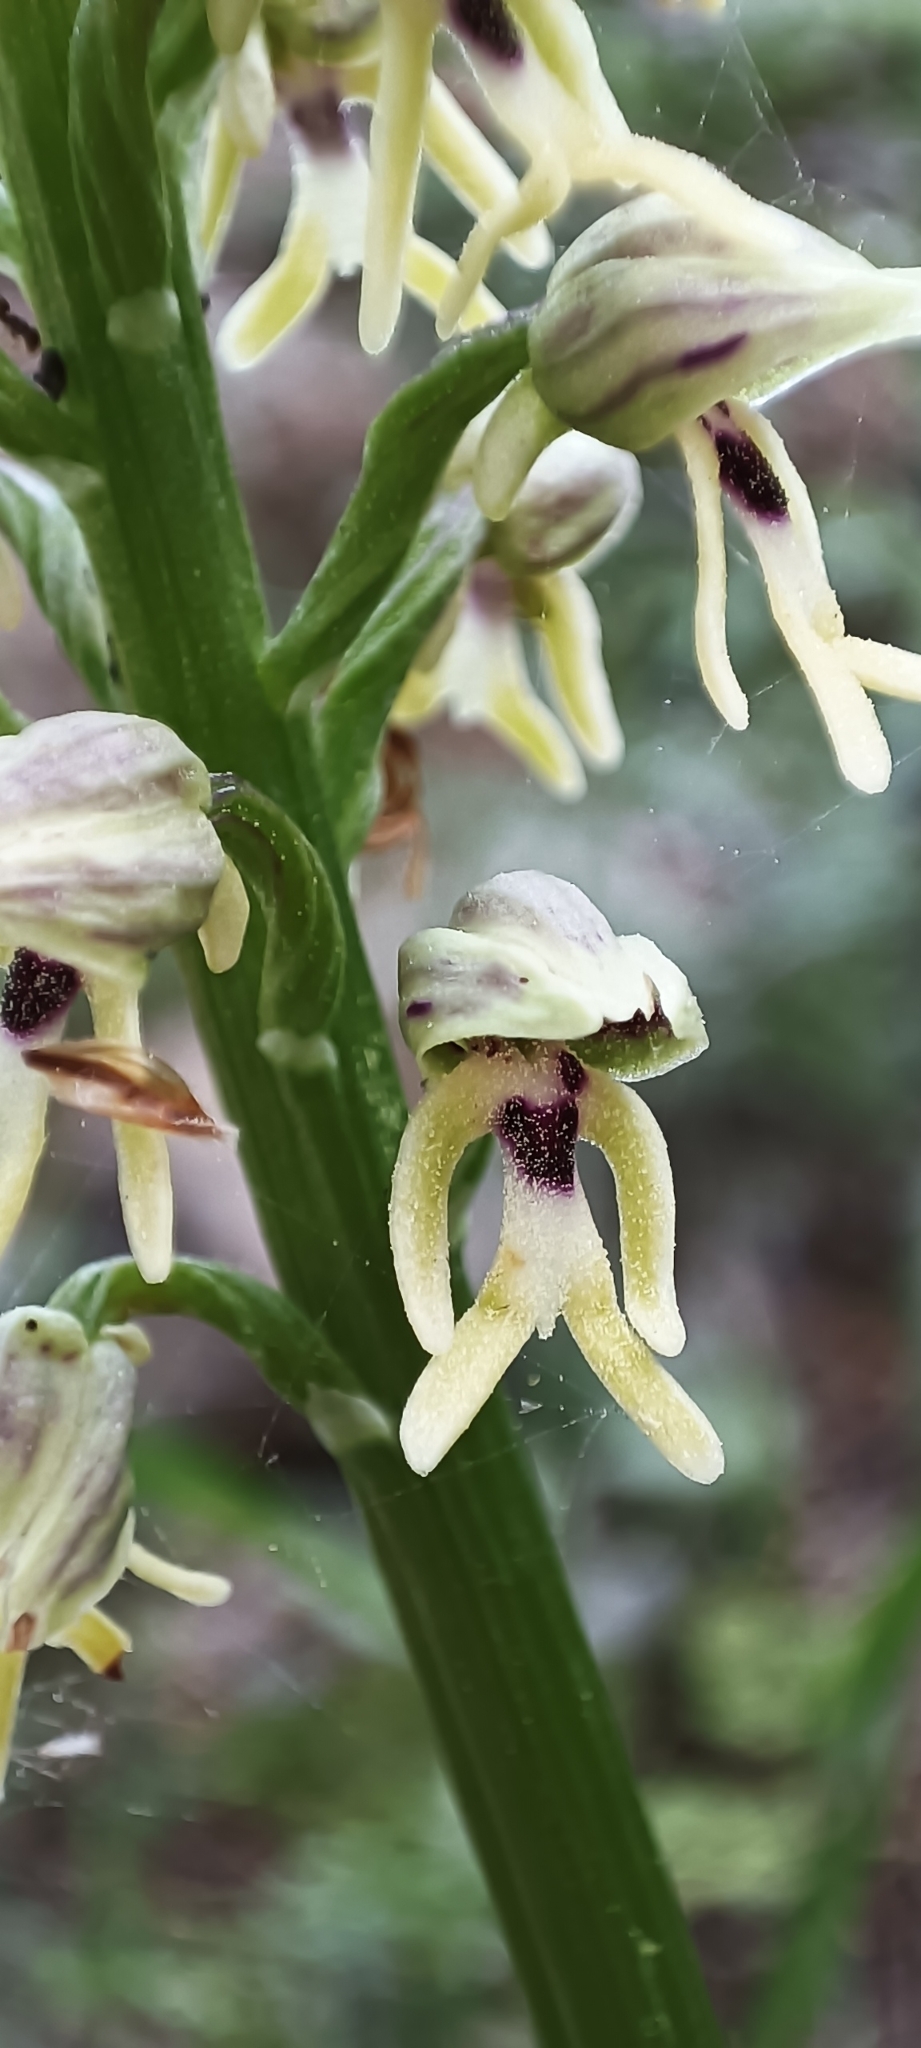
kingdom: Plantae
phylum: Tracheophyta
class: Liliopsida
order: Asparagales
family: Orchidaceae
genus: Orchis
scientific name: Orchis galilaea
